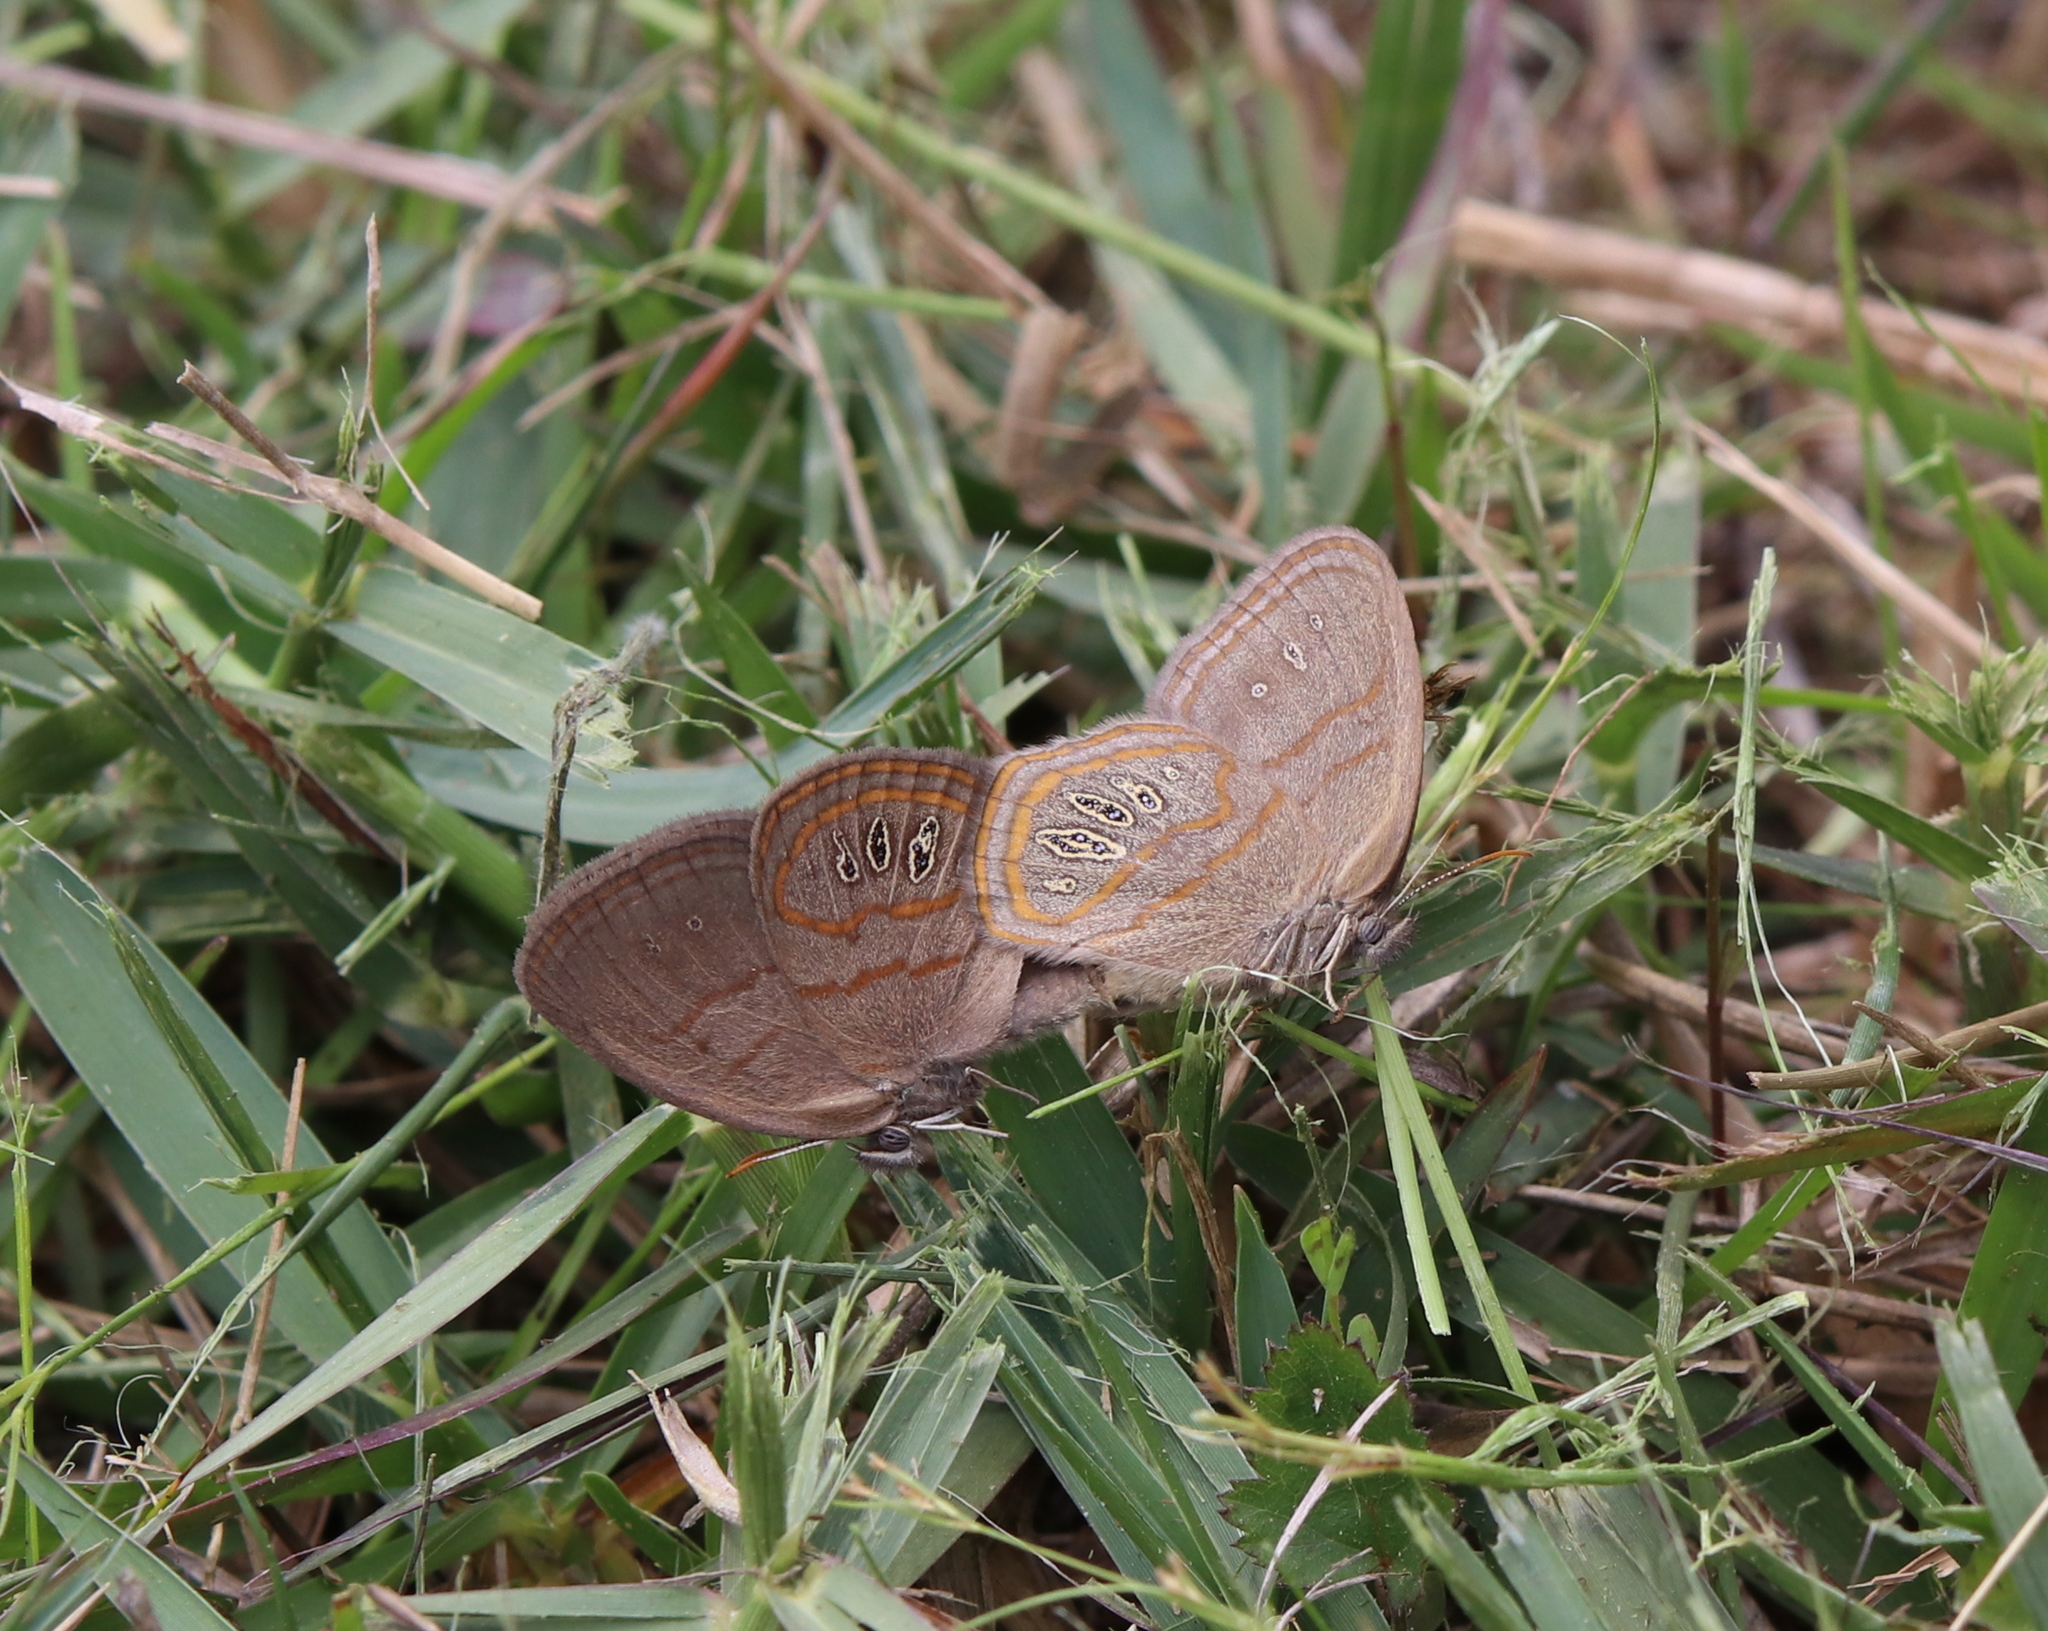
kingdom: Animalia
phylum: Arthropoda
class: Insecta
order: Lepidoptera
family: Nymphalidae
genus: Euptychia
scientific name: Euptychia phocion
